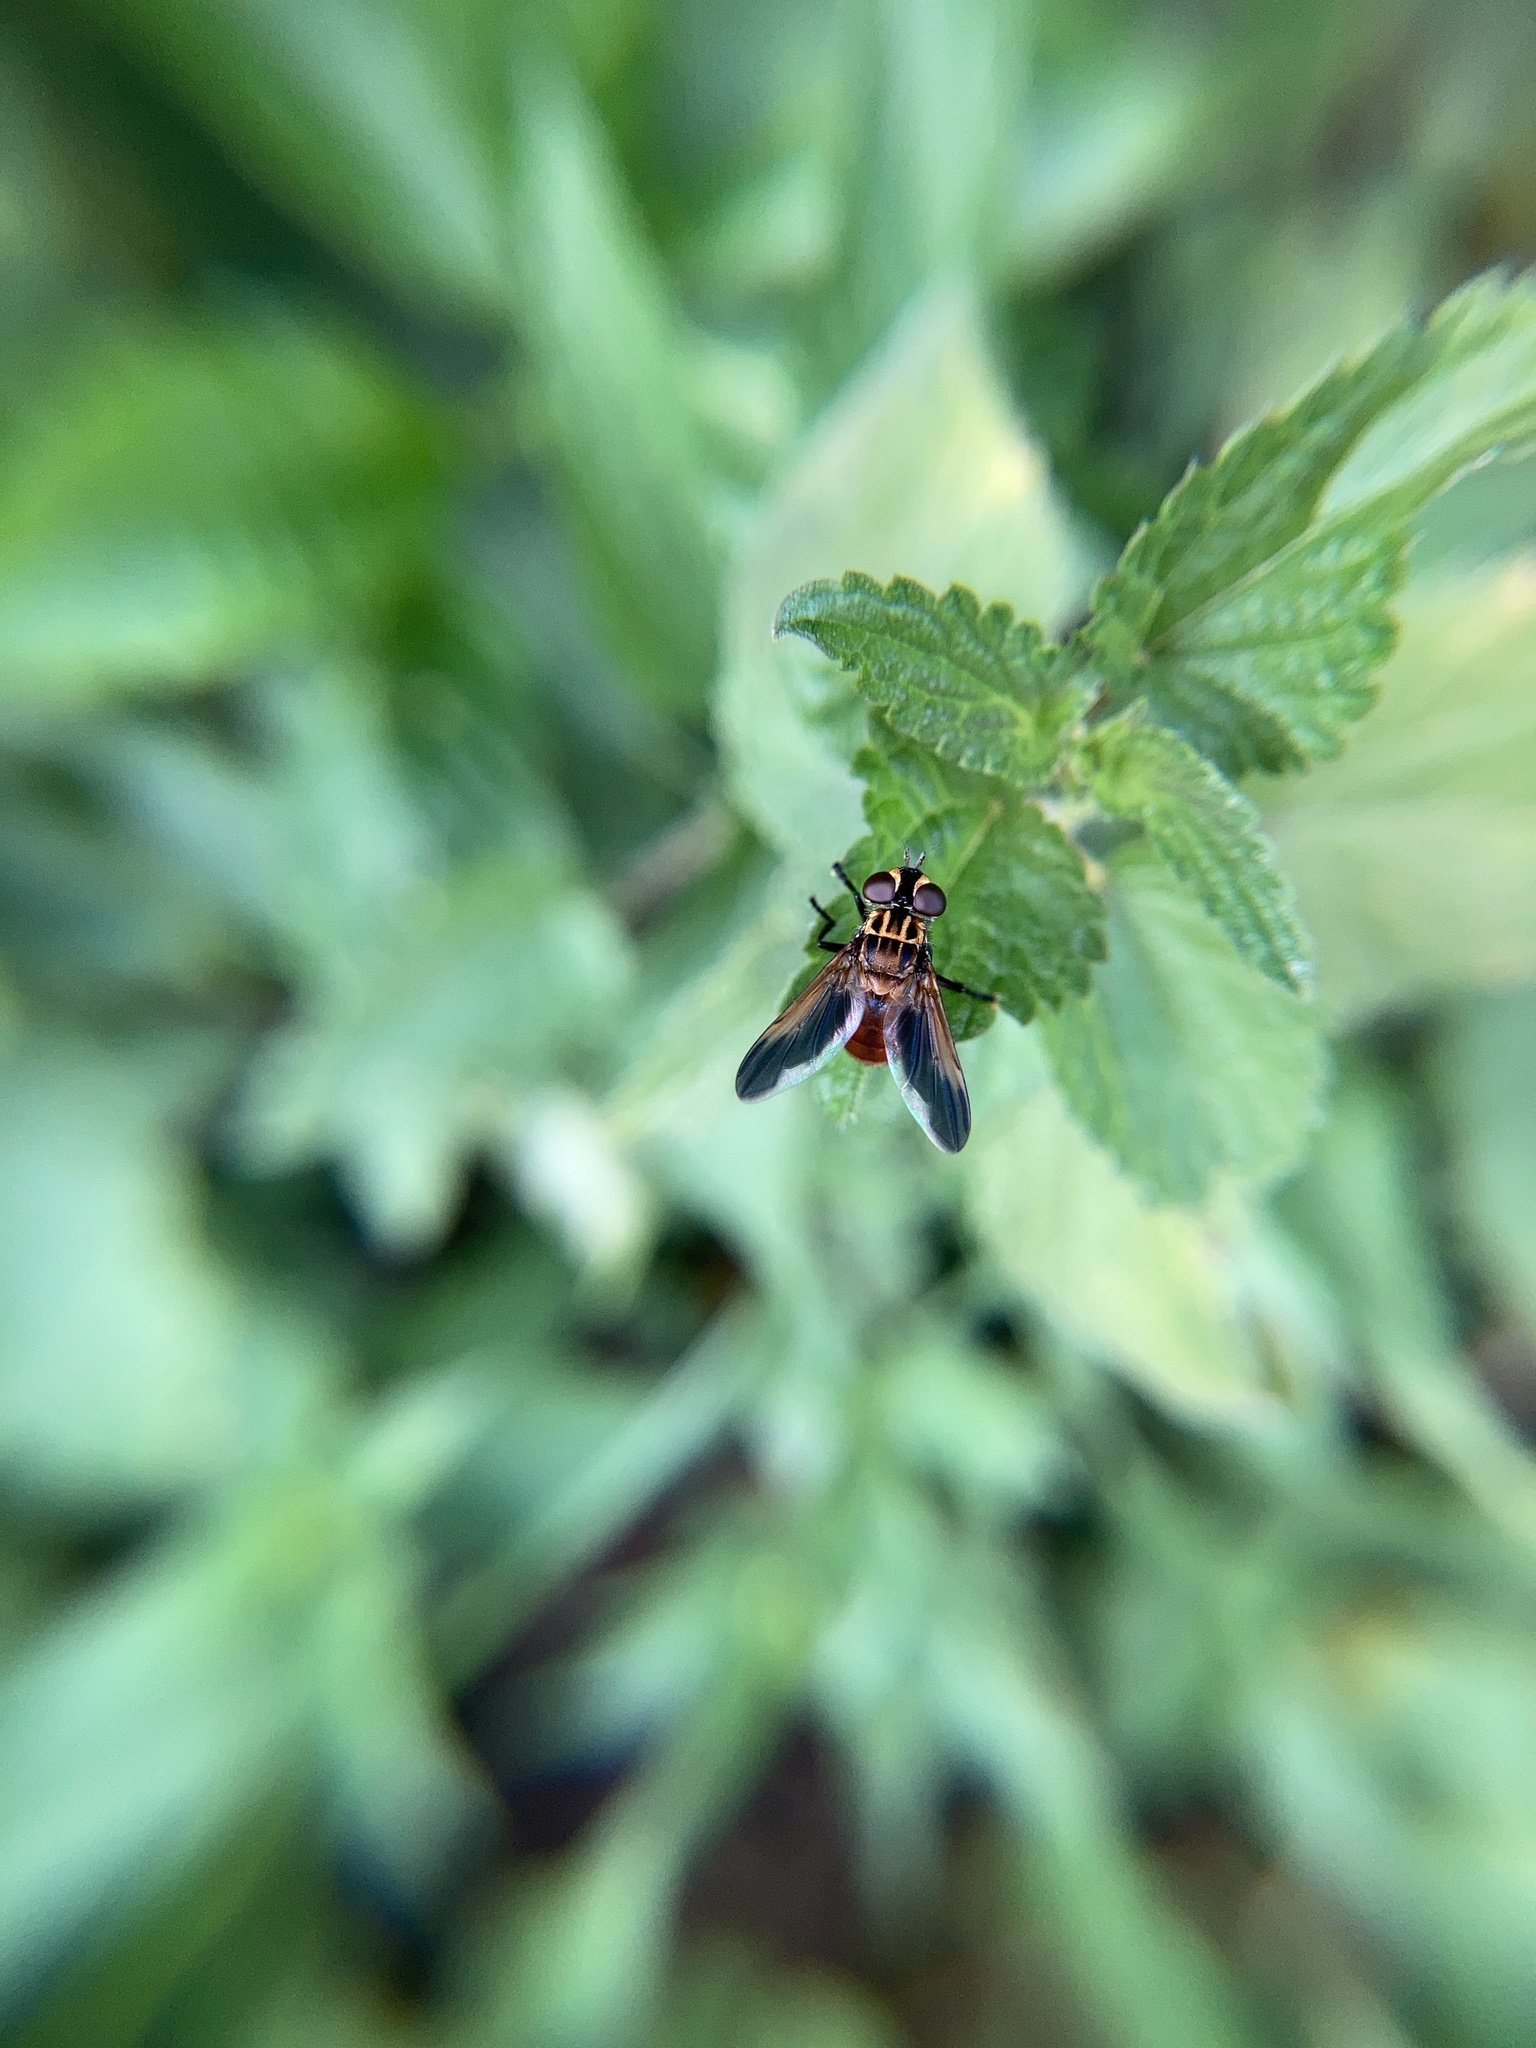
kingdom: Animalia
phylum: Arthropoda
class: Insecta
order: Diptera
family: Tachinidae
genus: Trichopoda
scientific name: Trichopoda pictipennis
